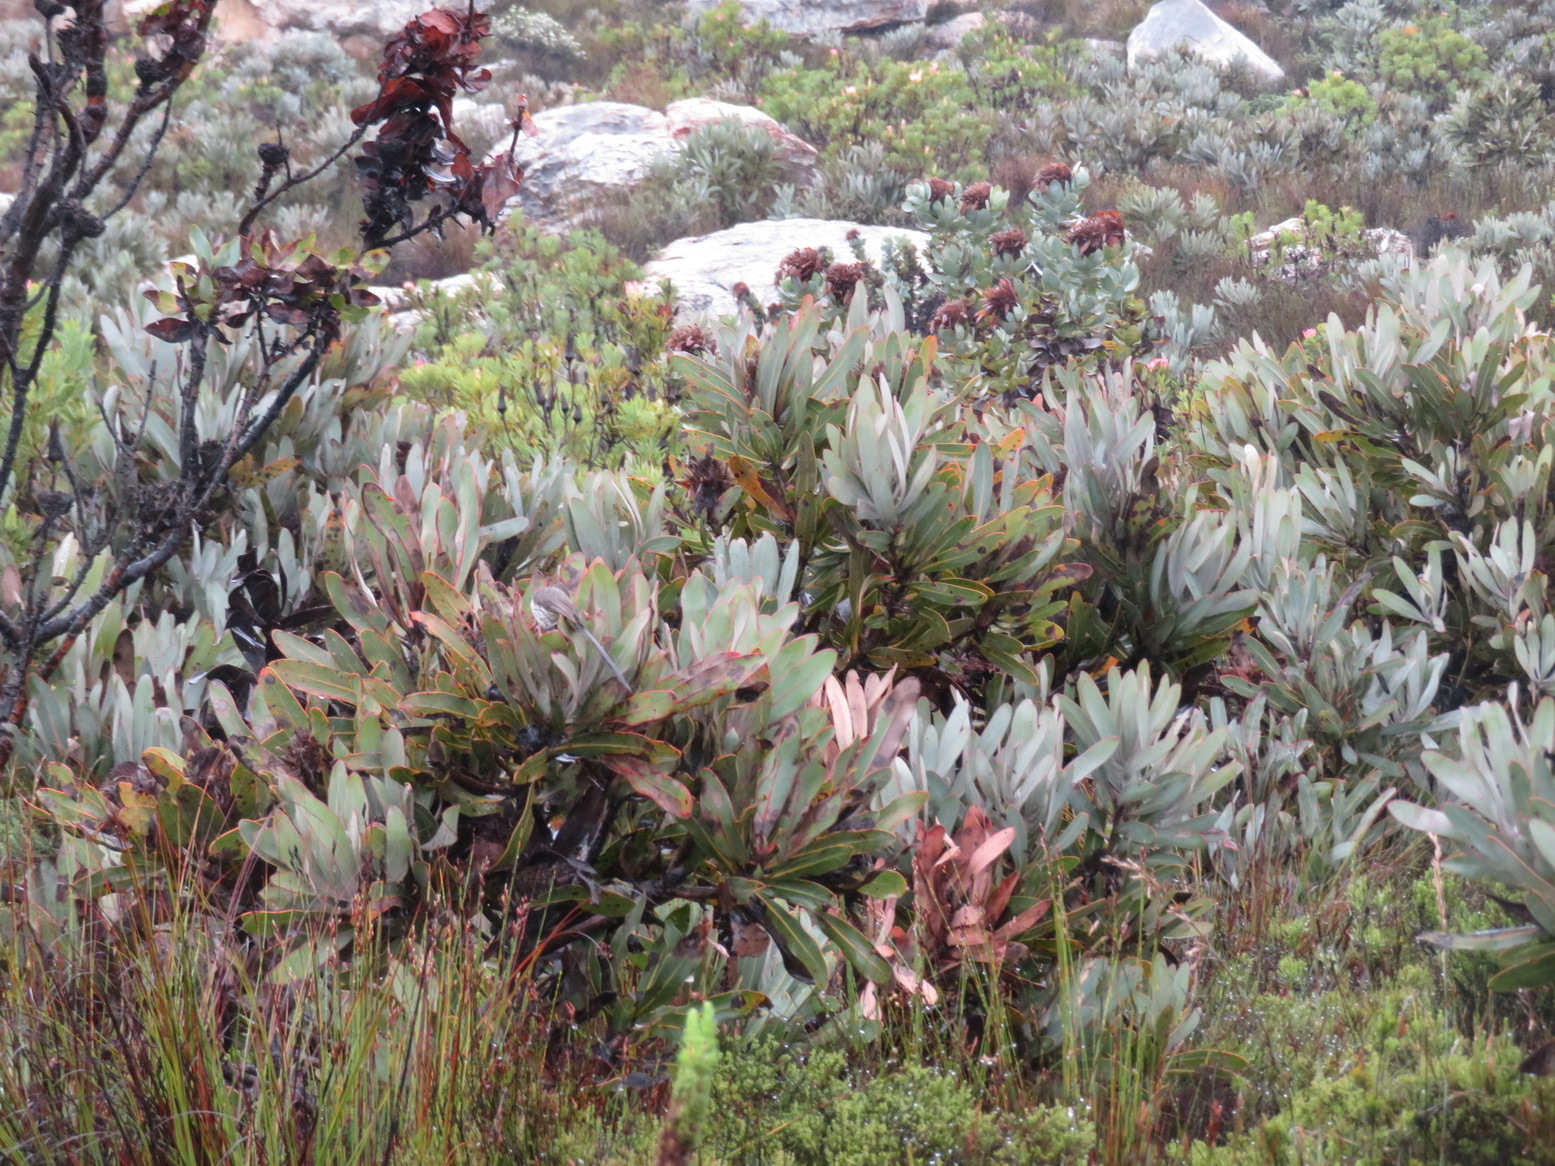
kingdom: Plantae
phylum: Tracheophyta
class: Magnoliopsida
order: Proteales
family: Proteaceae
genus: Protea
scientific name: Protea lorifolia
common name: Strap-leaved protea
